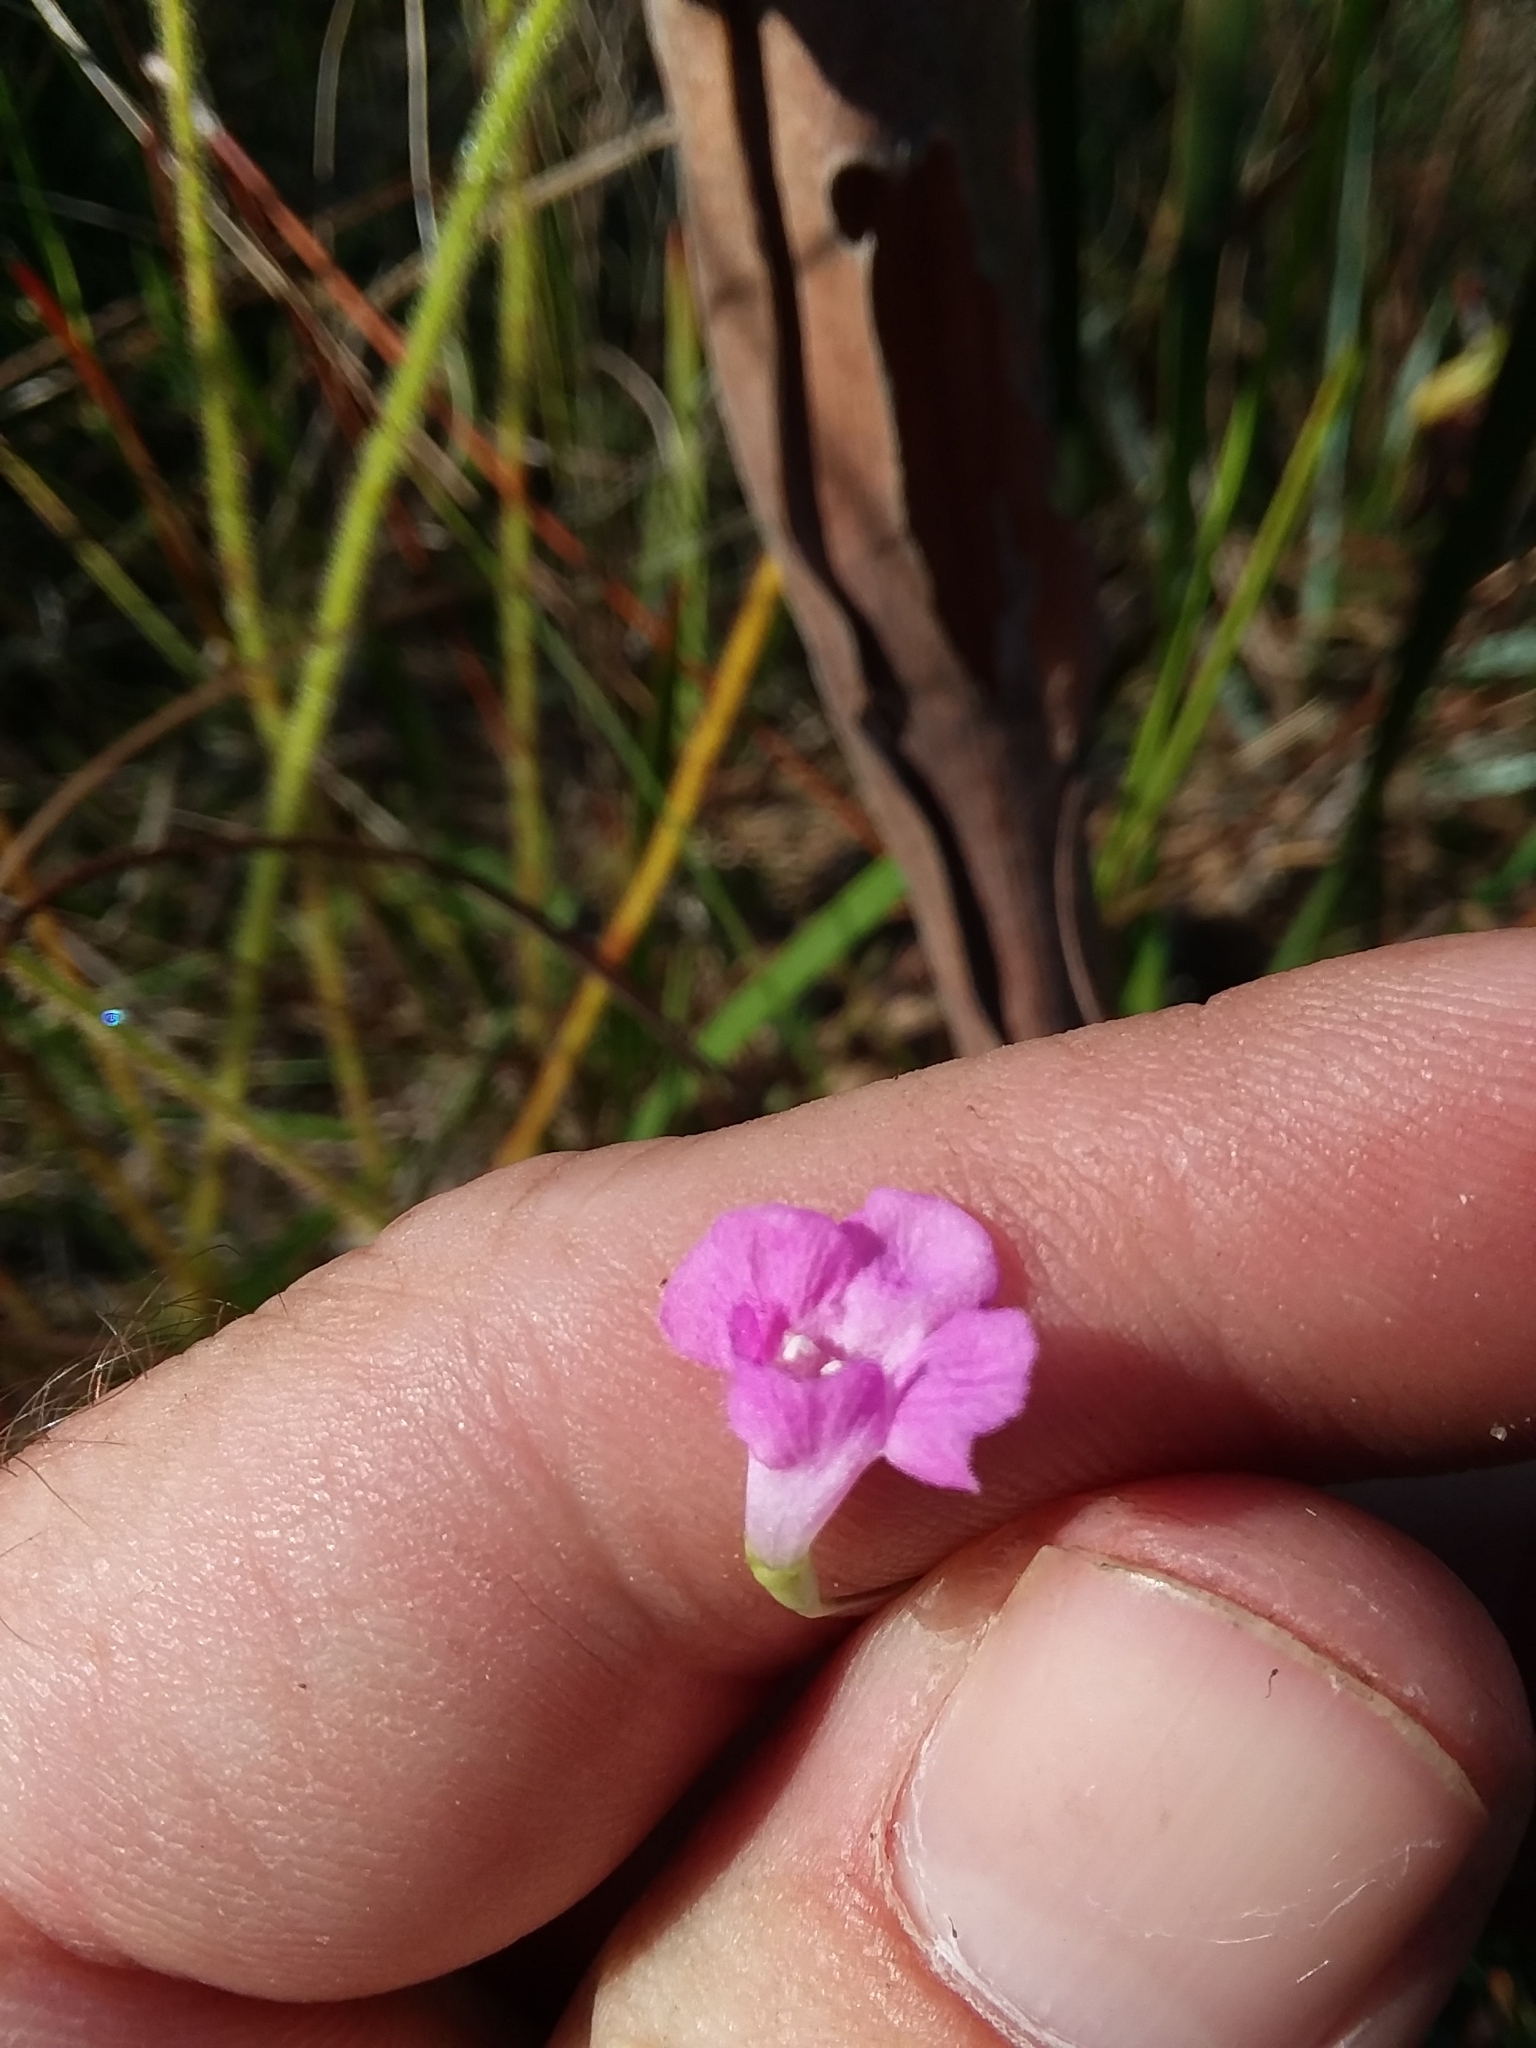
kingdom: Plantae
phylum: Tracheophyta
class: Magnoliopsida
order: Lamiales
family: Orobanchaceae
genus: Agalinis
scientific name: Agalinis filicaulis
